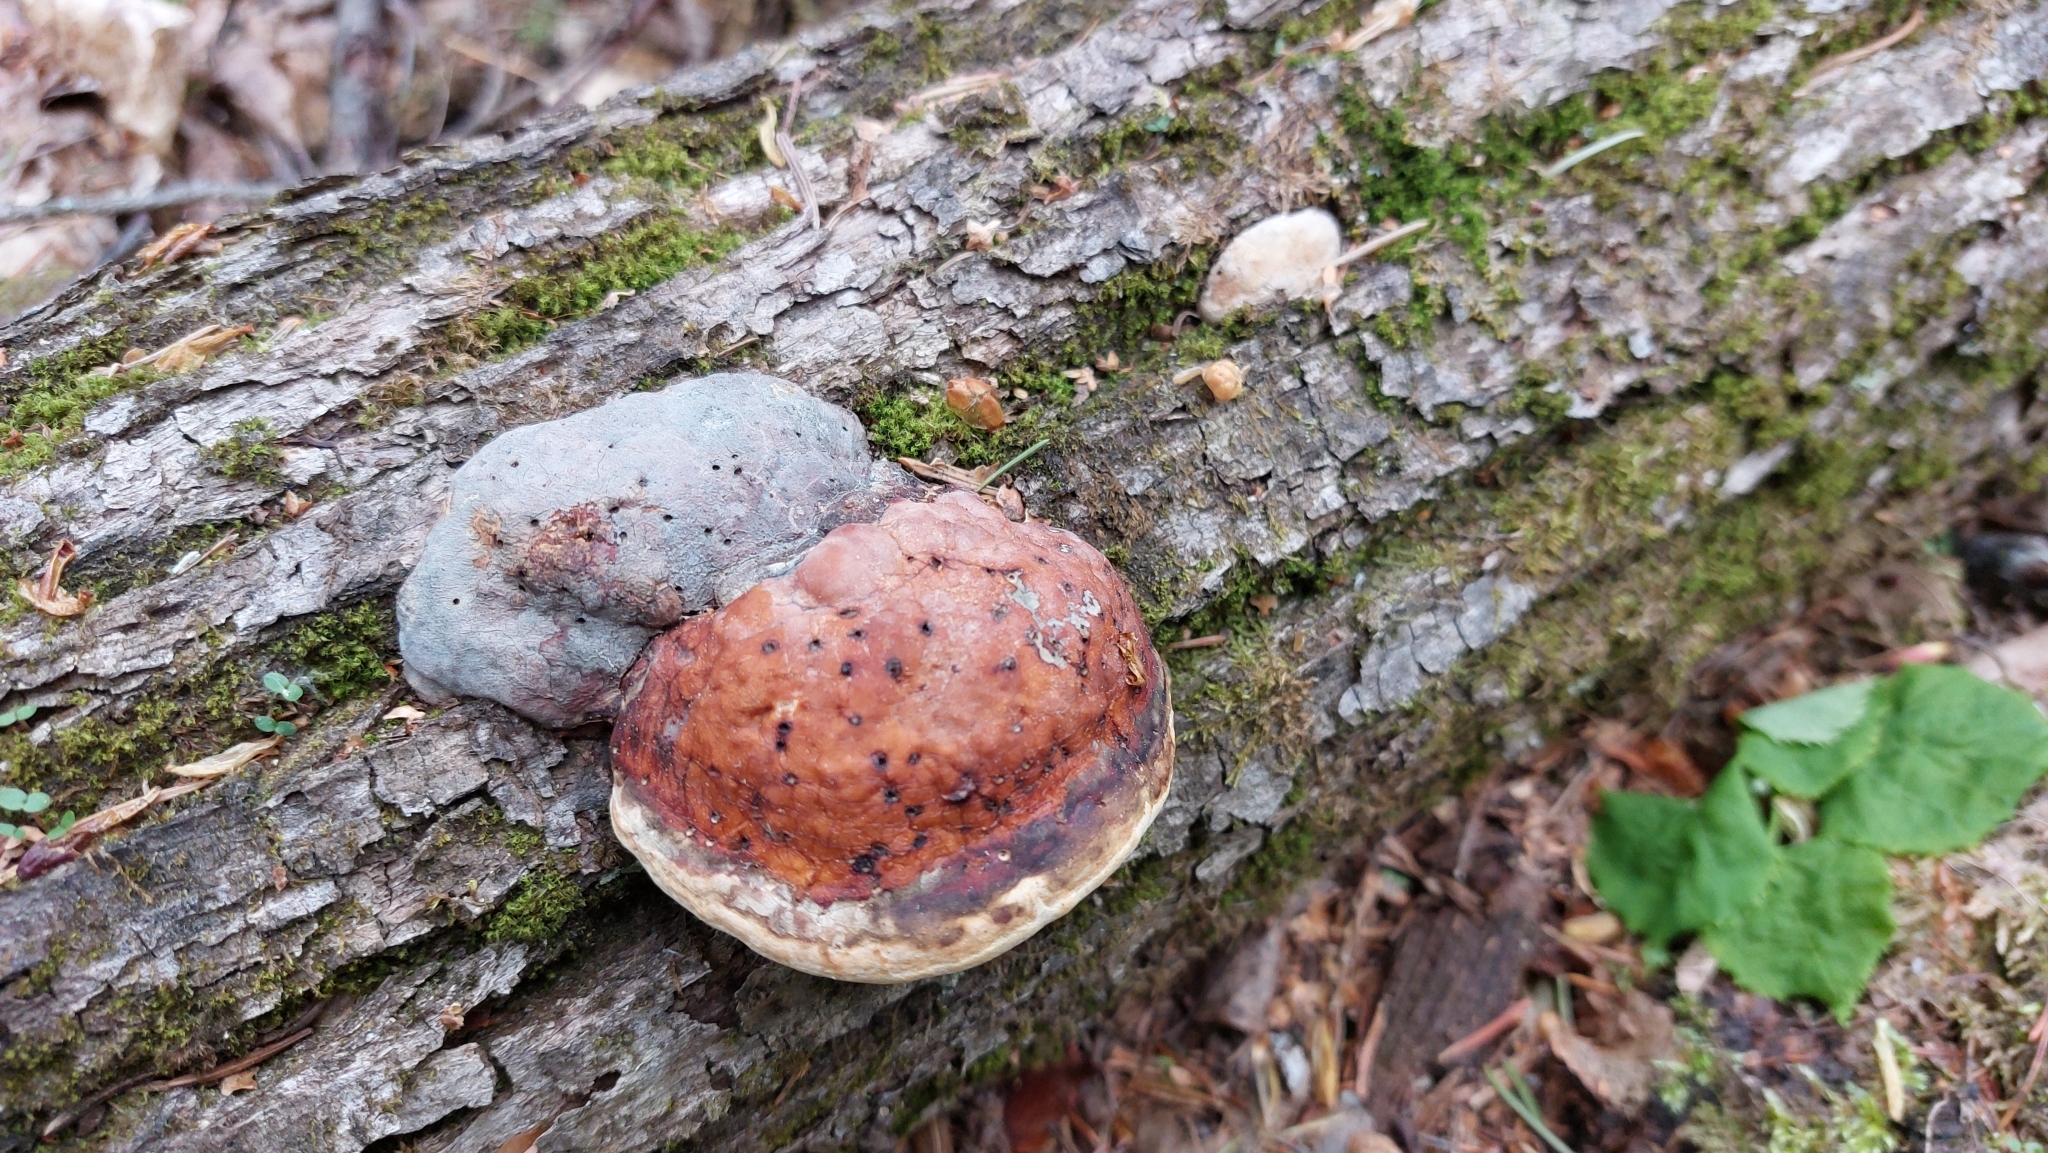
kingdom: Fungi
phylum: Basidiomycota
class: Agaricomycetes
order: Polyporales
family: Fomitopsidaceae
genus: Fomitopsis
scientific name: Fomitopsis pinicola
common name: Red-belted bracket
